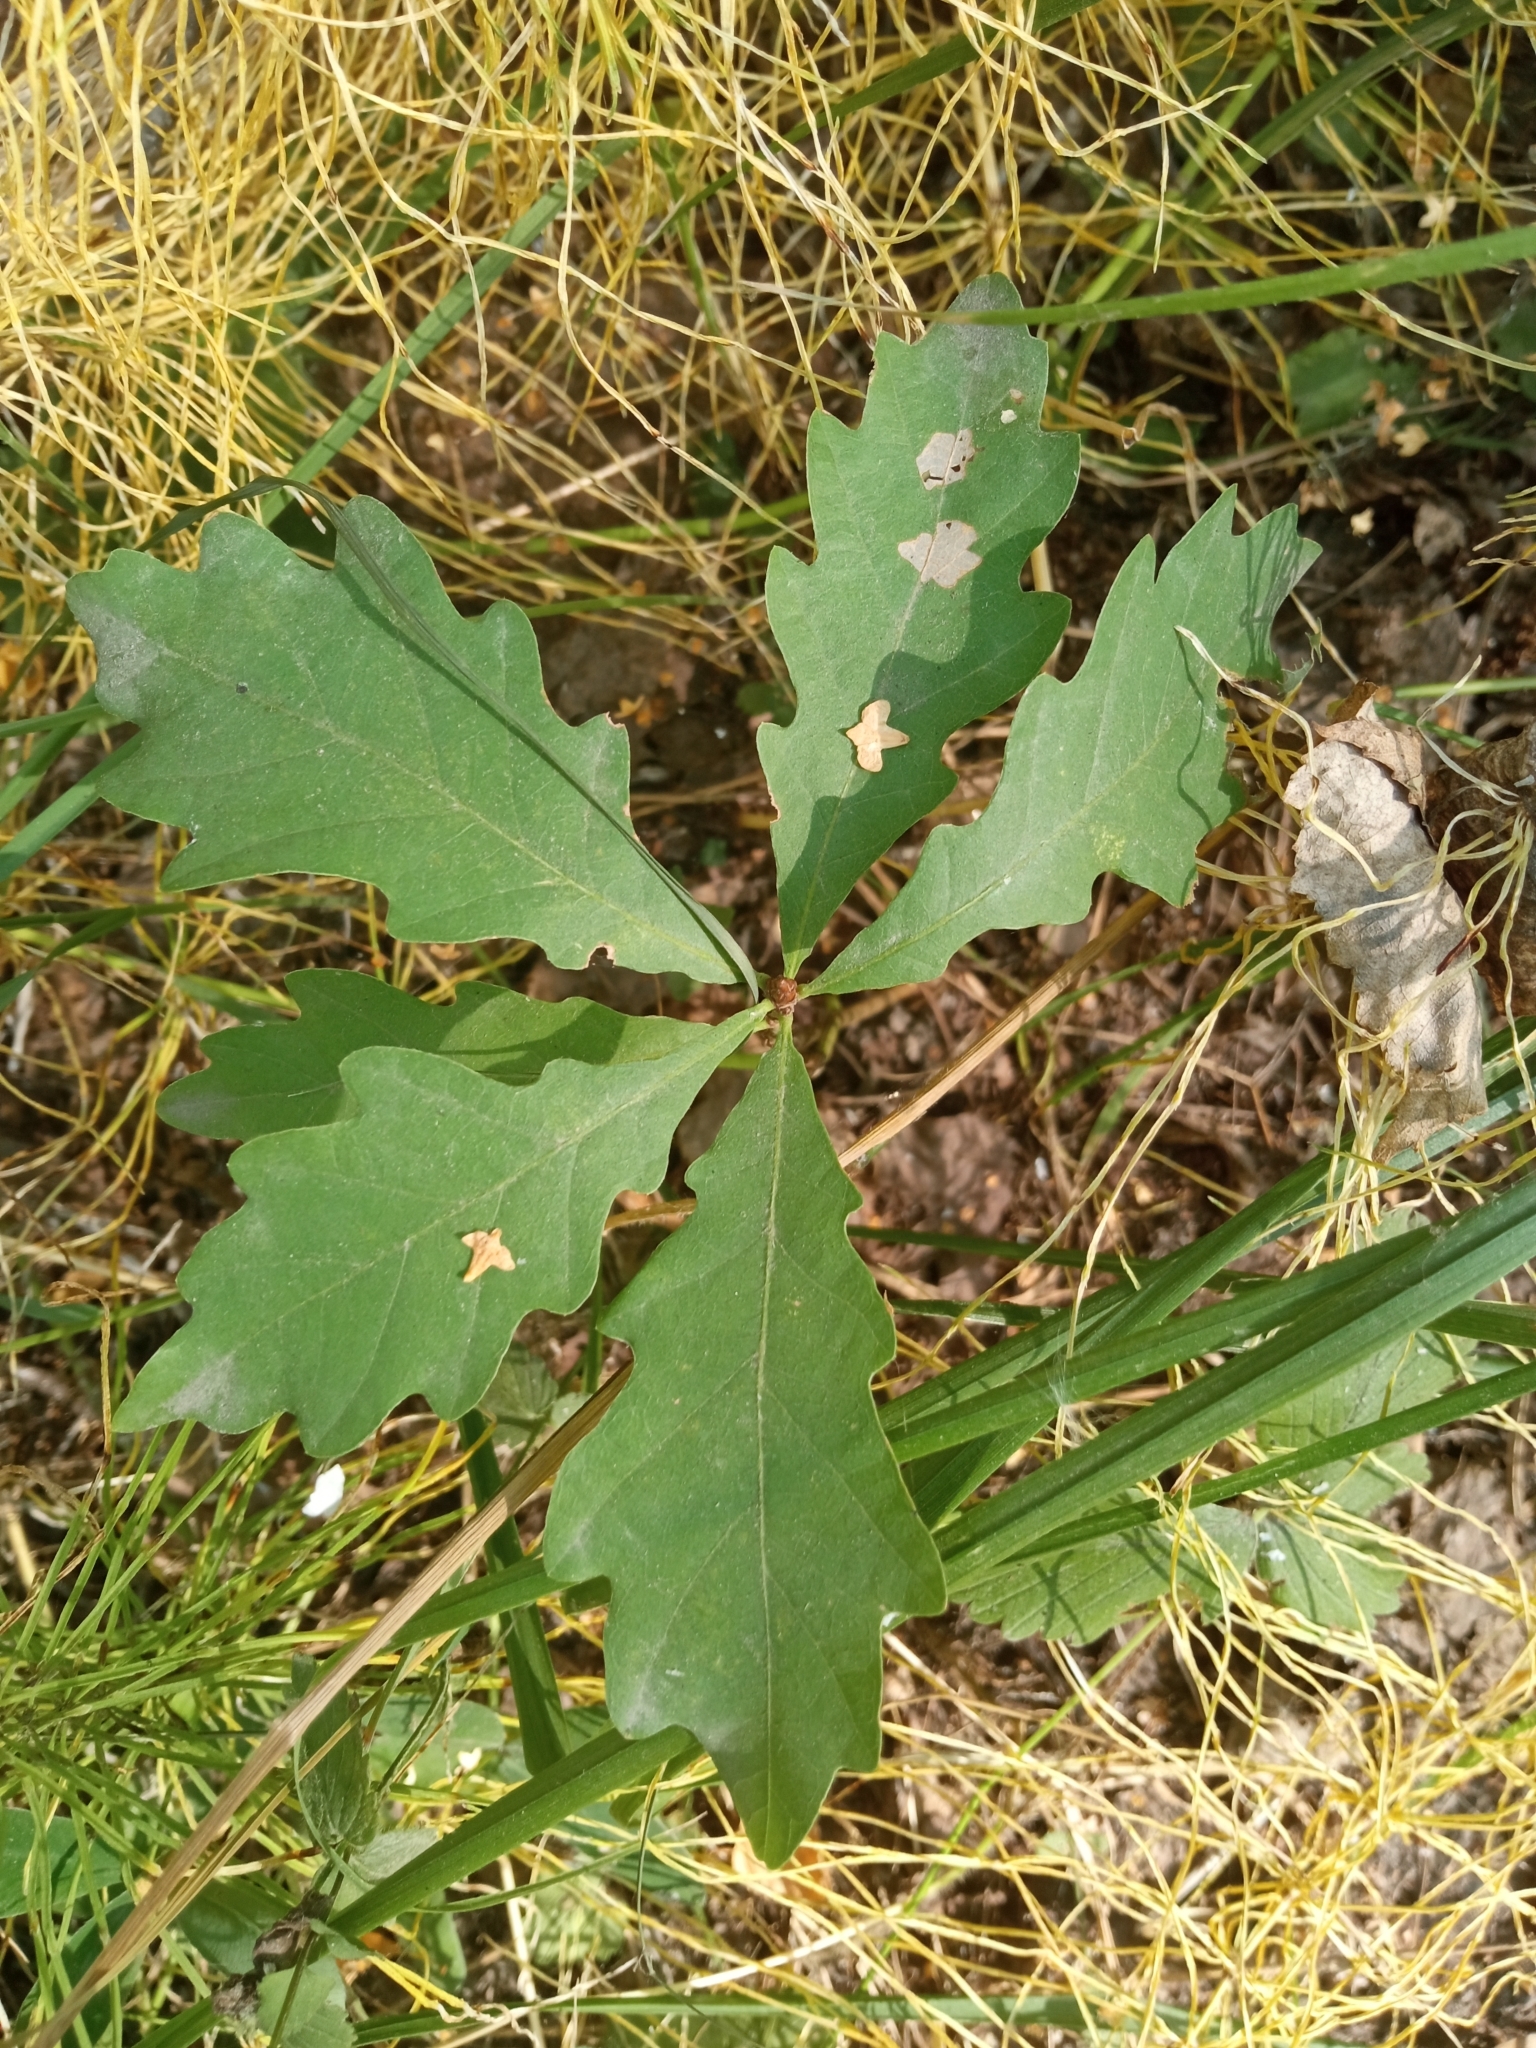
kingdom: Plantae
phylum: Tracheophyta
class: Magnoliopsida
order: Fagales
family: Fagaceae
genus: Quercus
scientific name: Quercus robur
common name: Pedunculate oak
